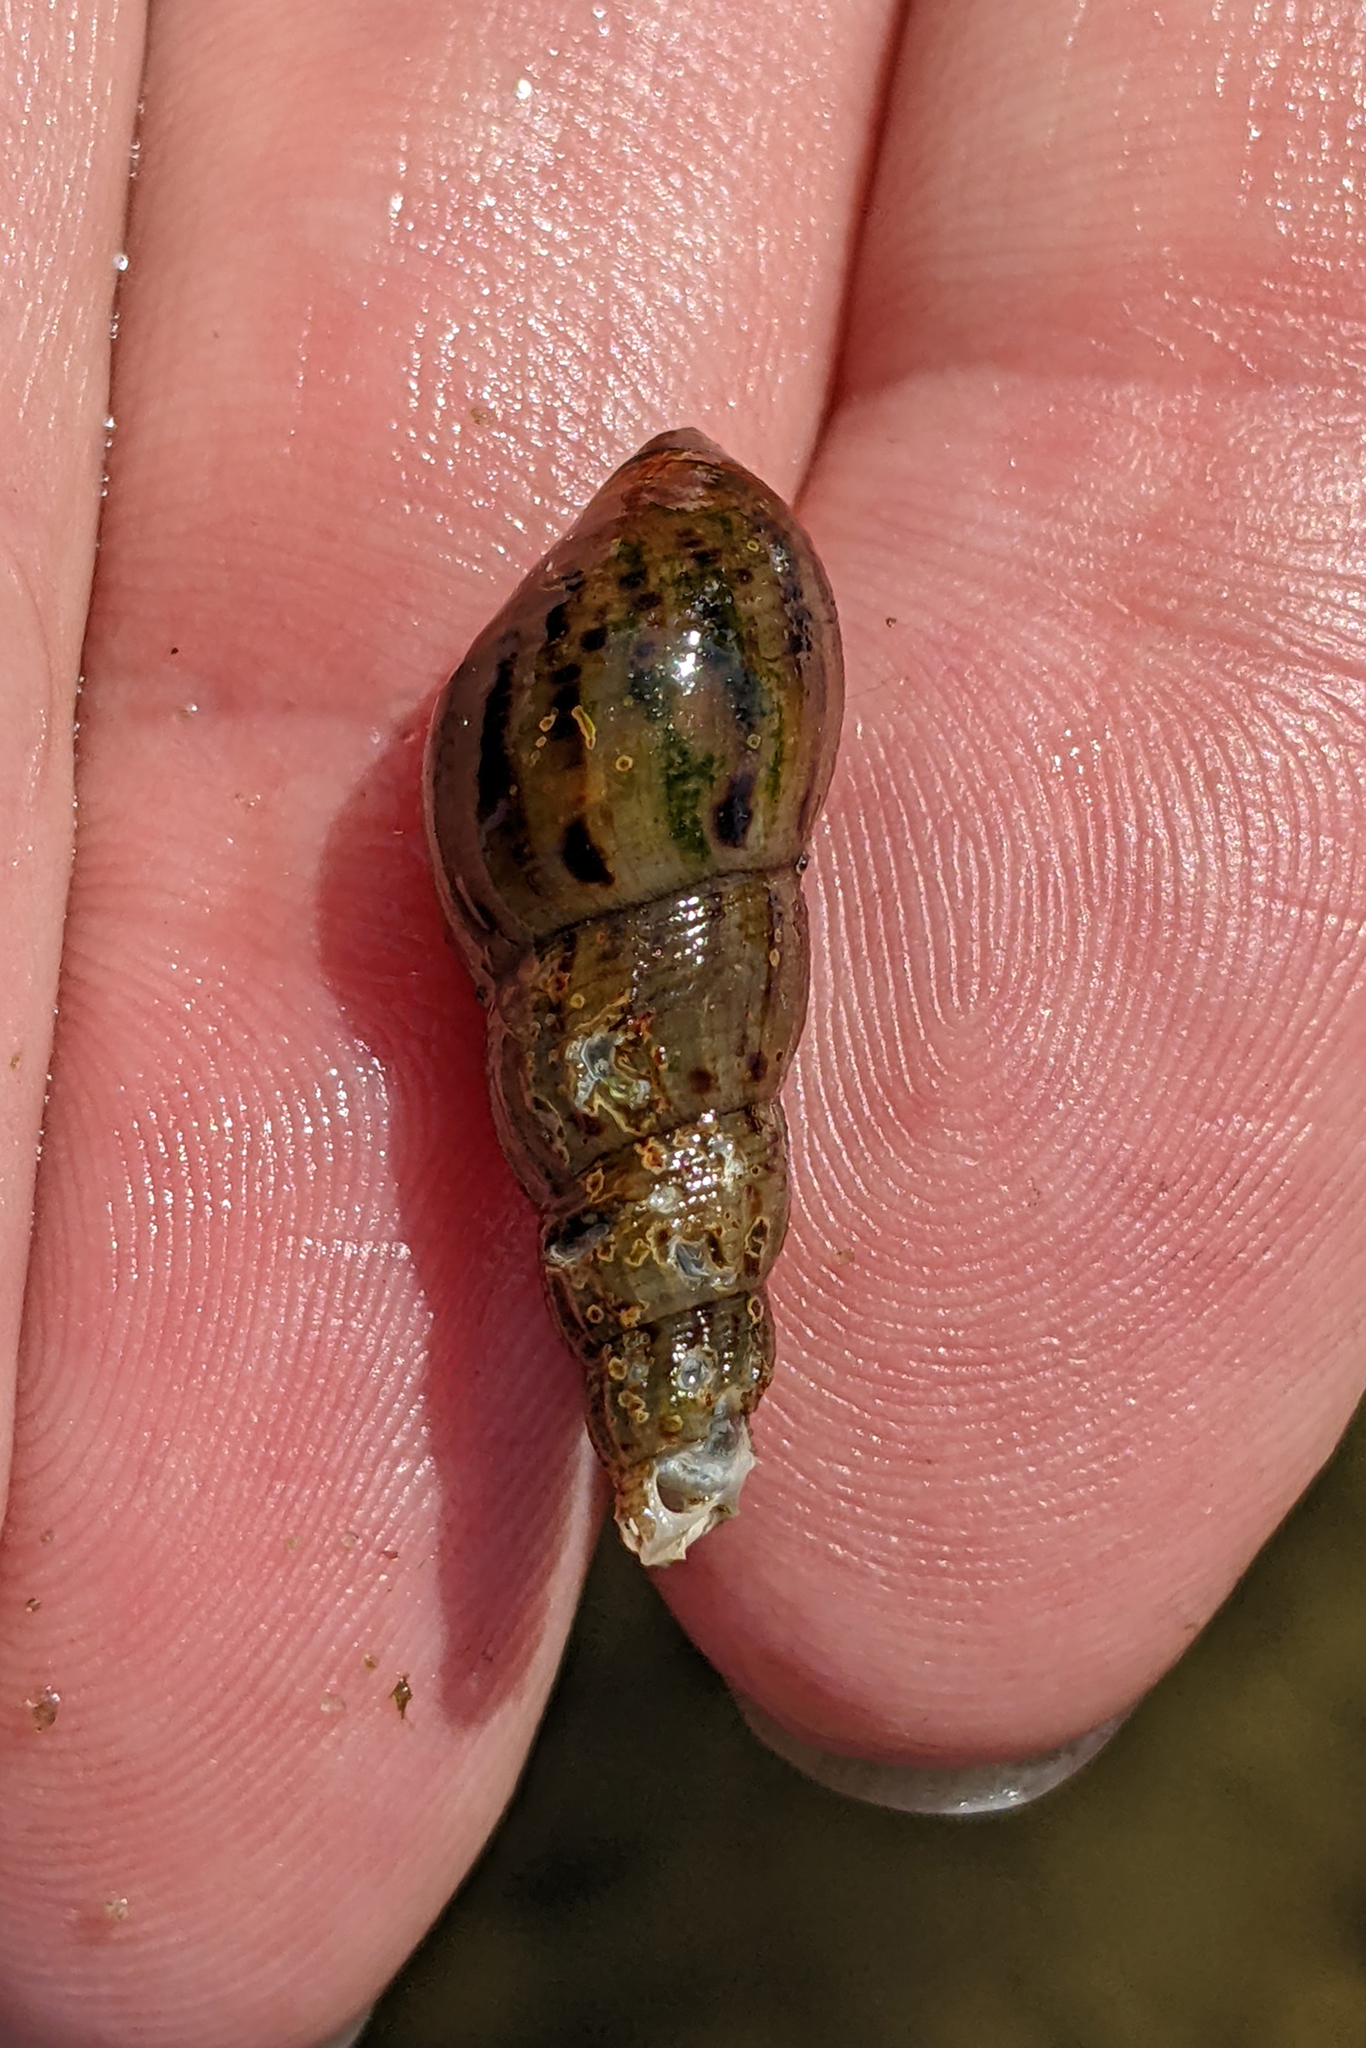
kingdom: Animalia
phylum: Mollusca
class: Gastropoda
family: Thiaridae
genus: Melanoides
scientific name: Melanoides tuberculata
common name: Red-rim melania
